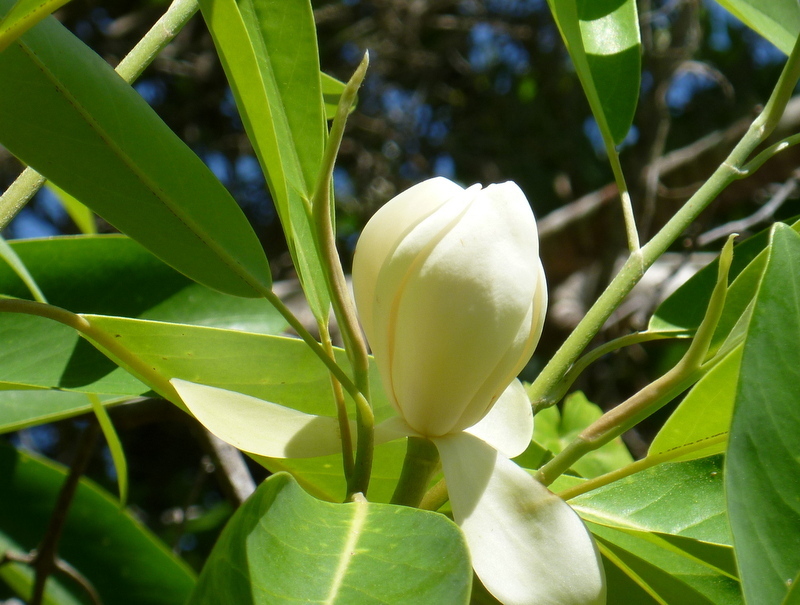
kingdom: Plantae
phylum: Tracheophyta
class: Magnoliopsida
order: Magnoliales
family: Magnoliaceae
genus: Magnolia
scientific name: Magnolia virginiana
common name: Swamp bay
